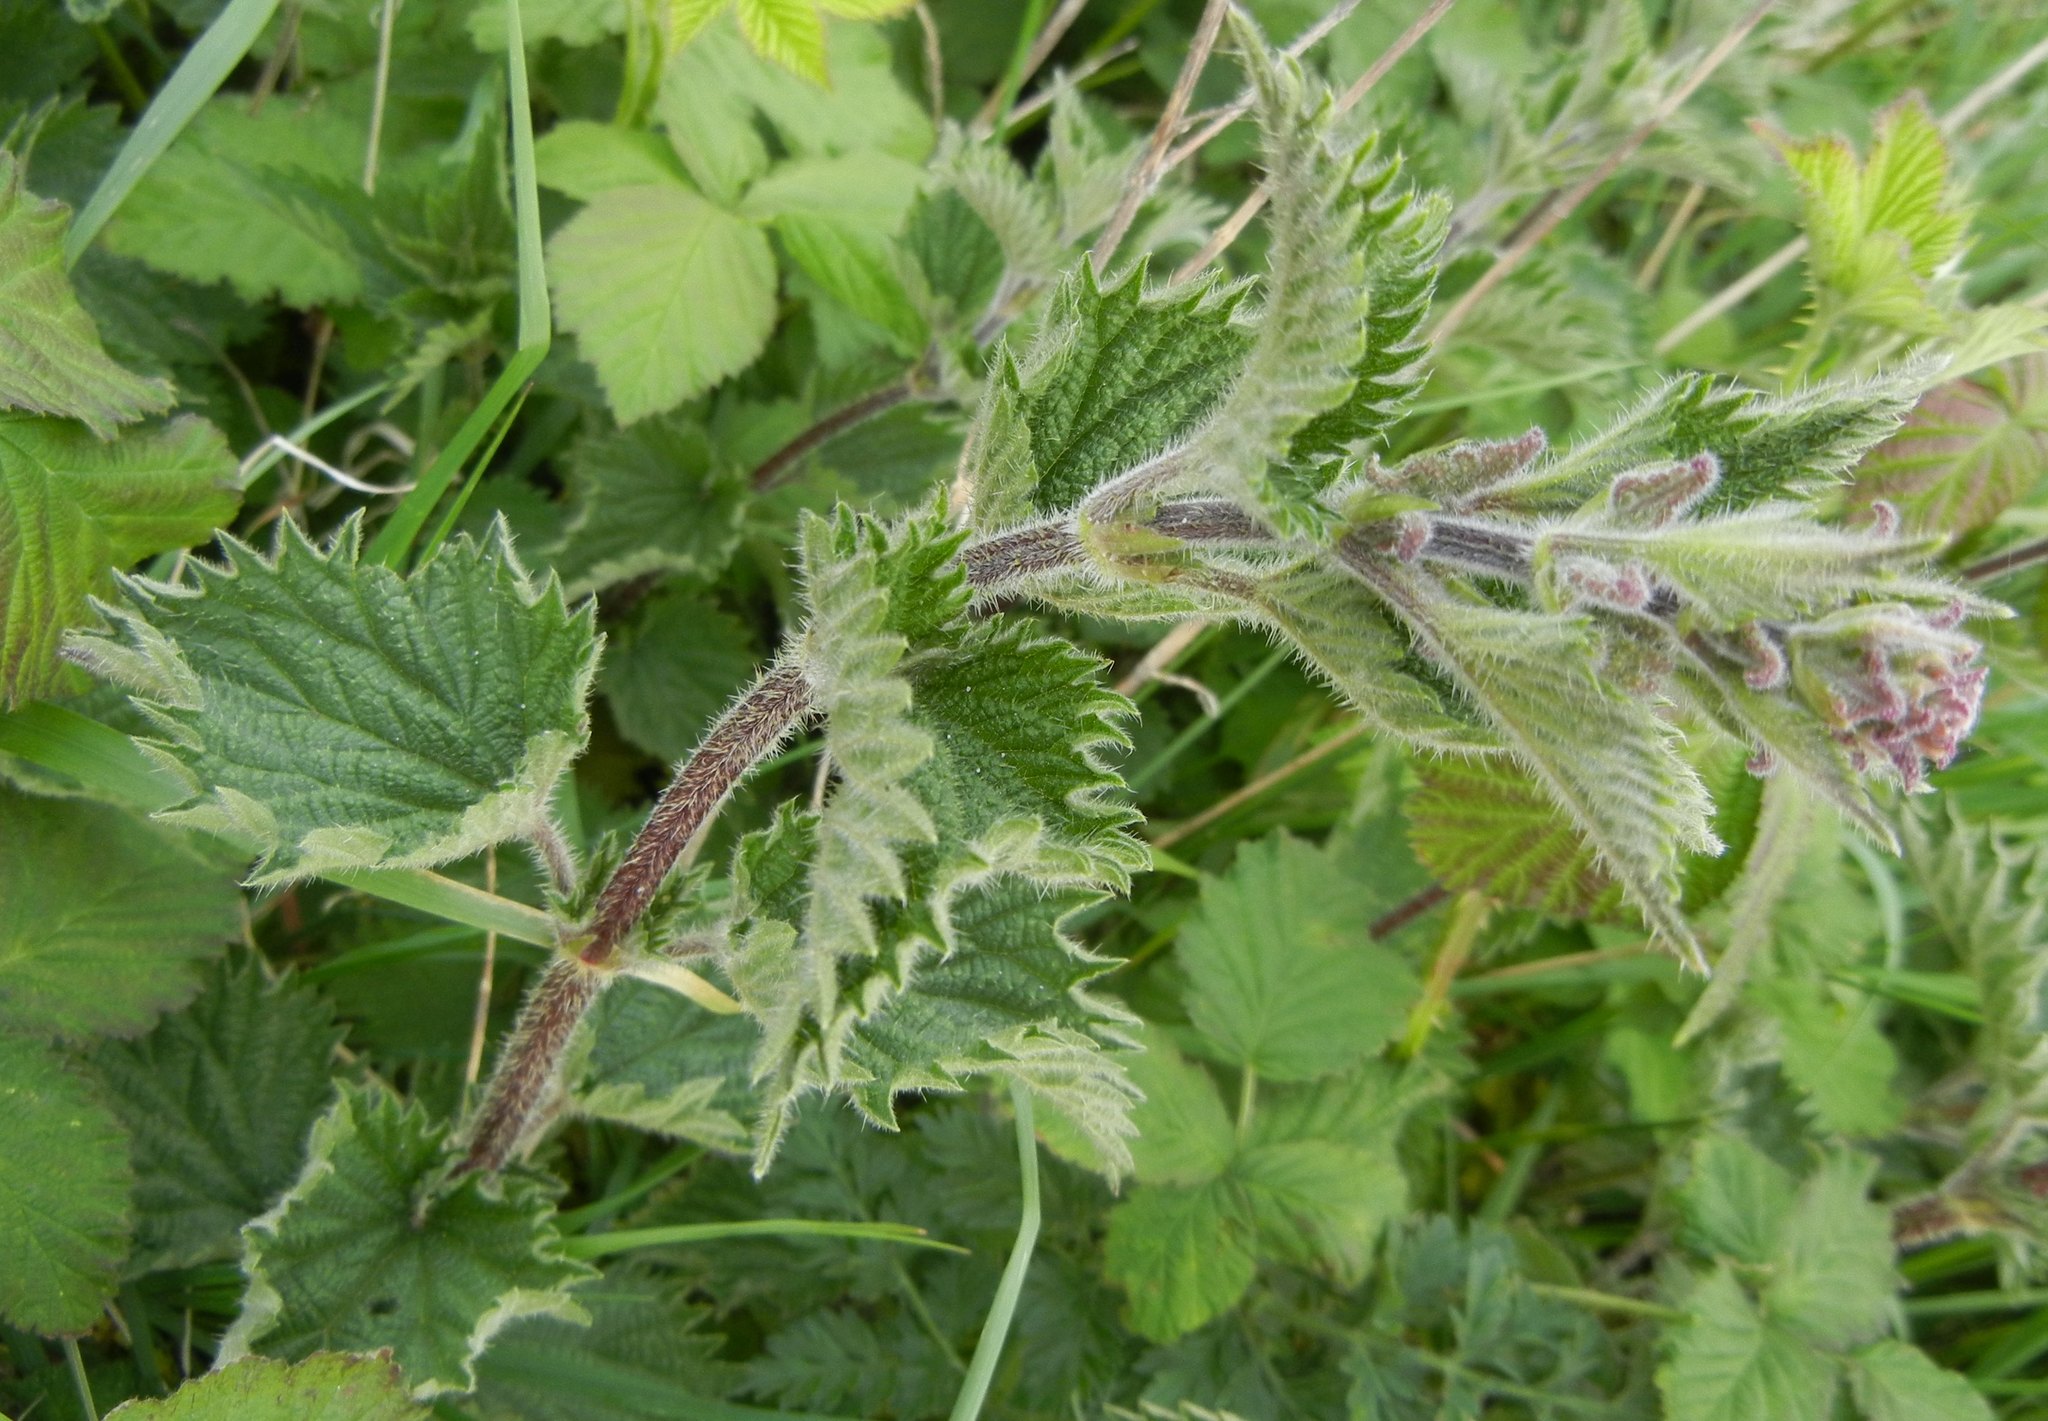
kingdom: Plantae
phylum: Tracheophyta
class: Magnoliopsida
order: Rosales
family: Urticaceae
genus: Urtica
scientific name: Urtica dioica
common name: Common nettle
